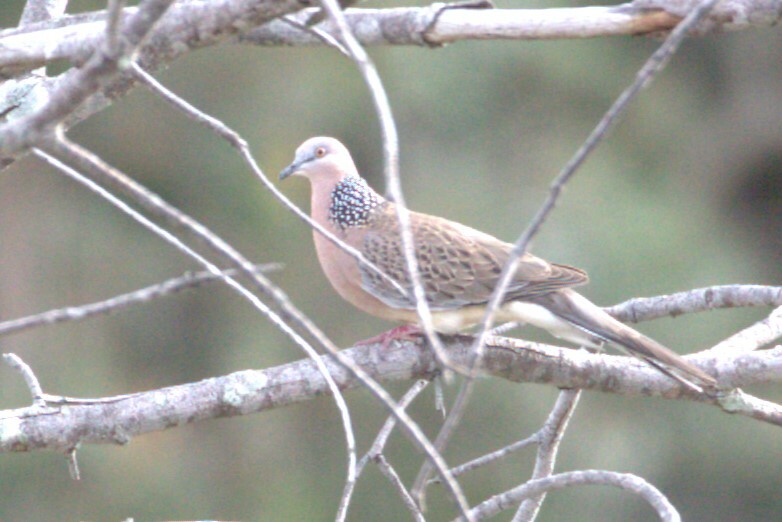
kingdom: Animalia
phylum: Chordata
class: Aves
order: Columbiformes
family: Columbidae
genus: Spilopelia
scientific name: Spilopelia chinensis
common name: Spotted dove
